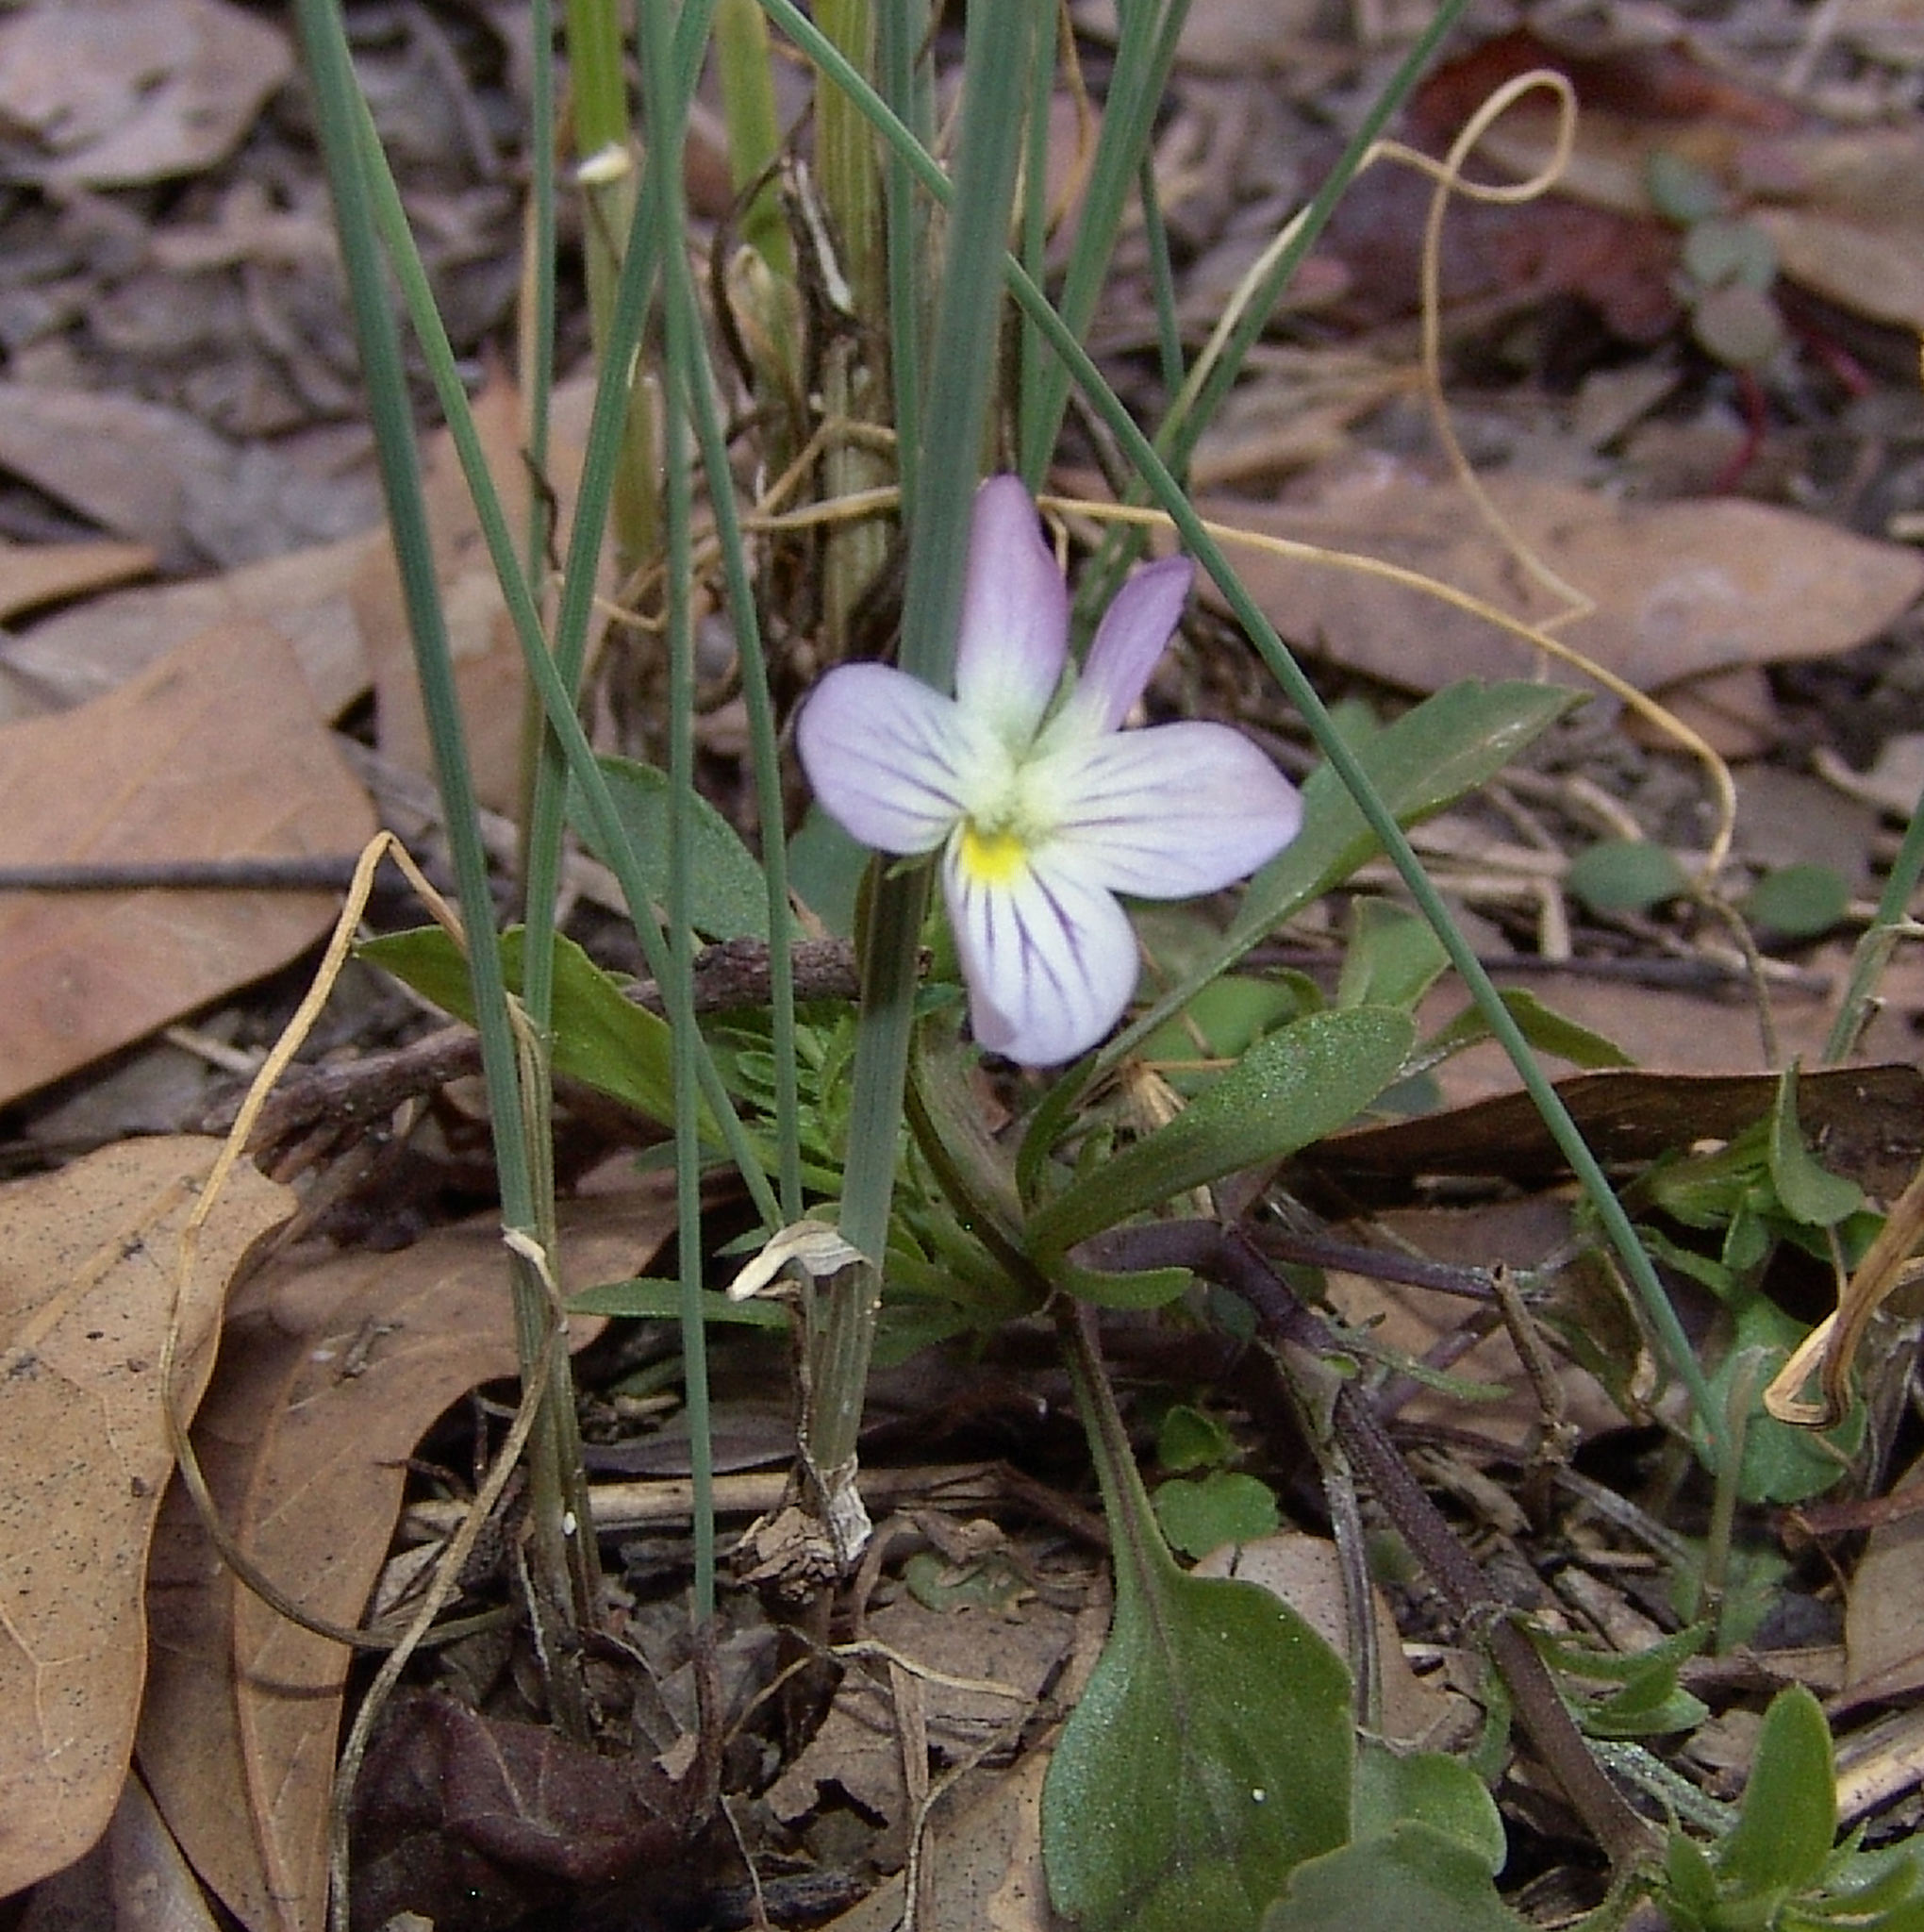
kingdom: Plantae
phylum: Tracheophyta
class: Magnoliopsida
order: Malpighiales
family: Violaceae
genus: Viola
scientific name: Viola rafinesquei
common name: American field pansy
